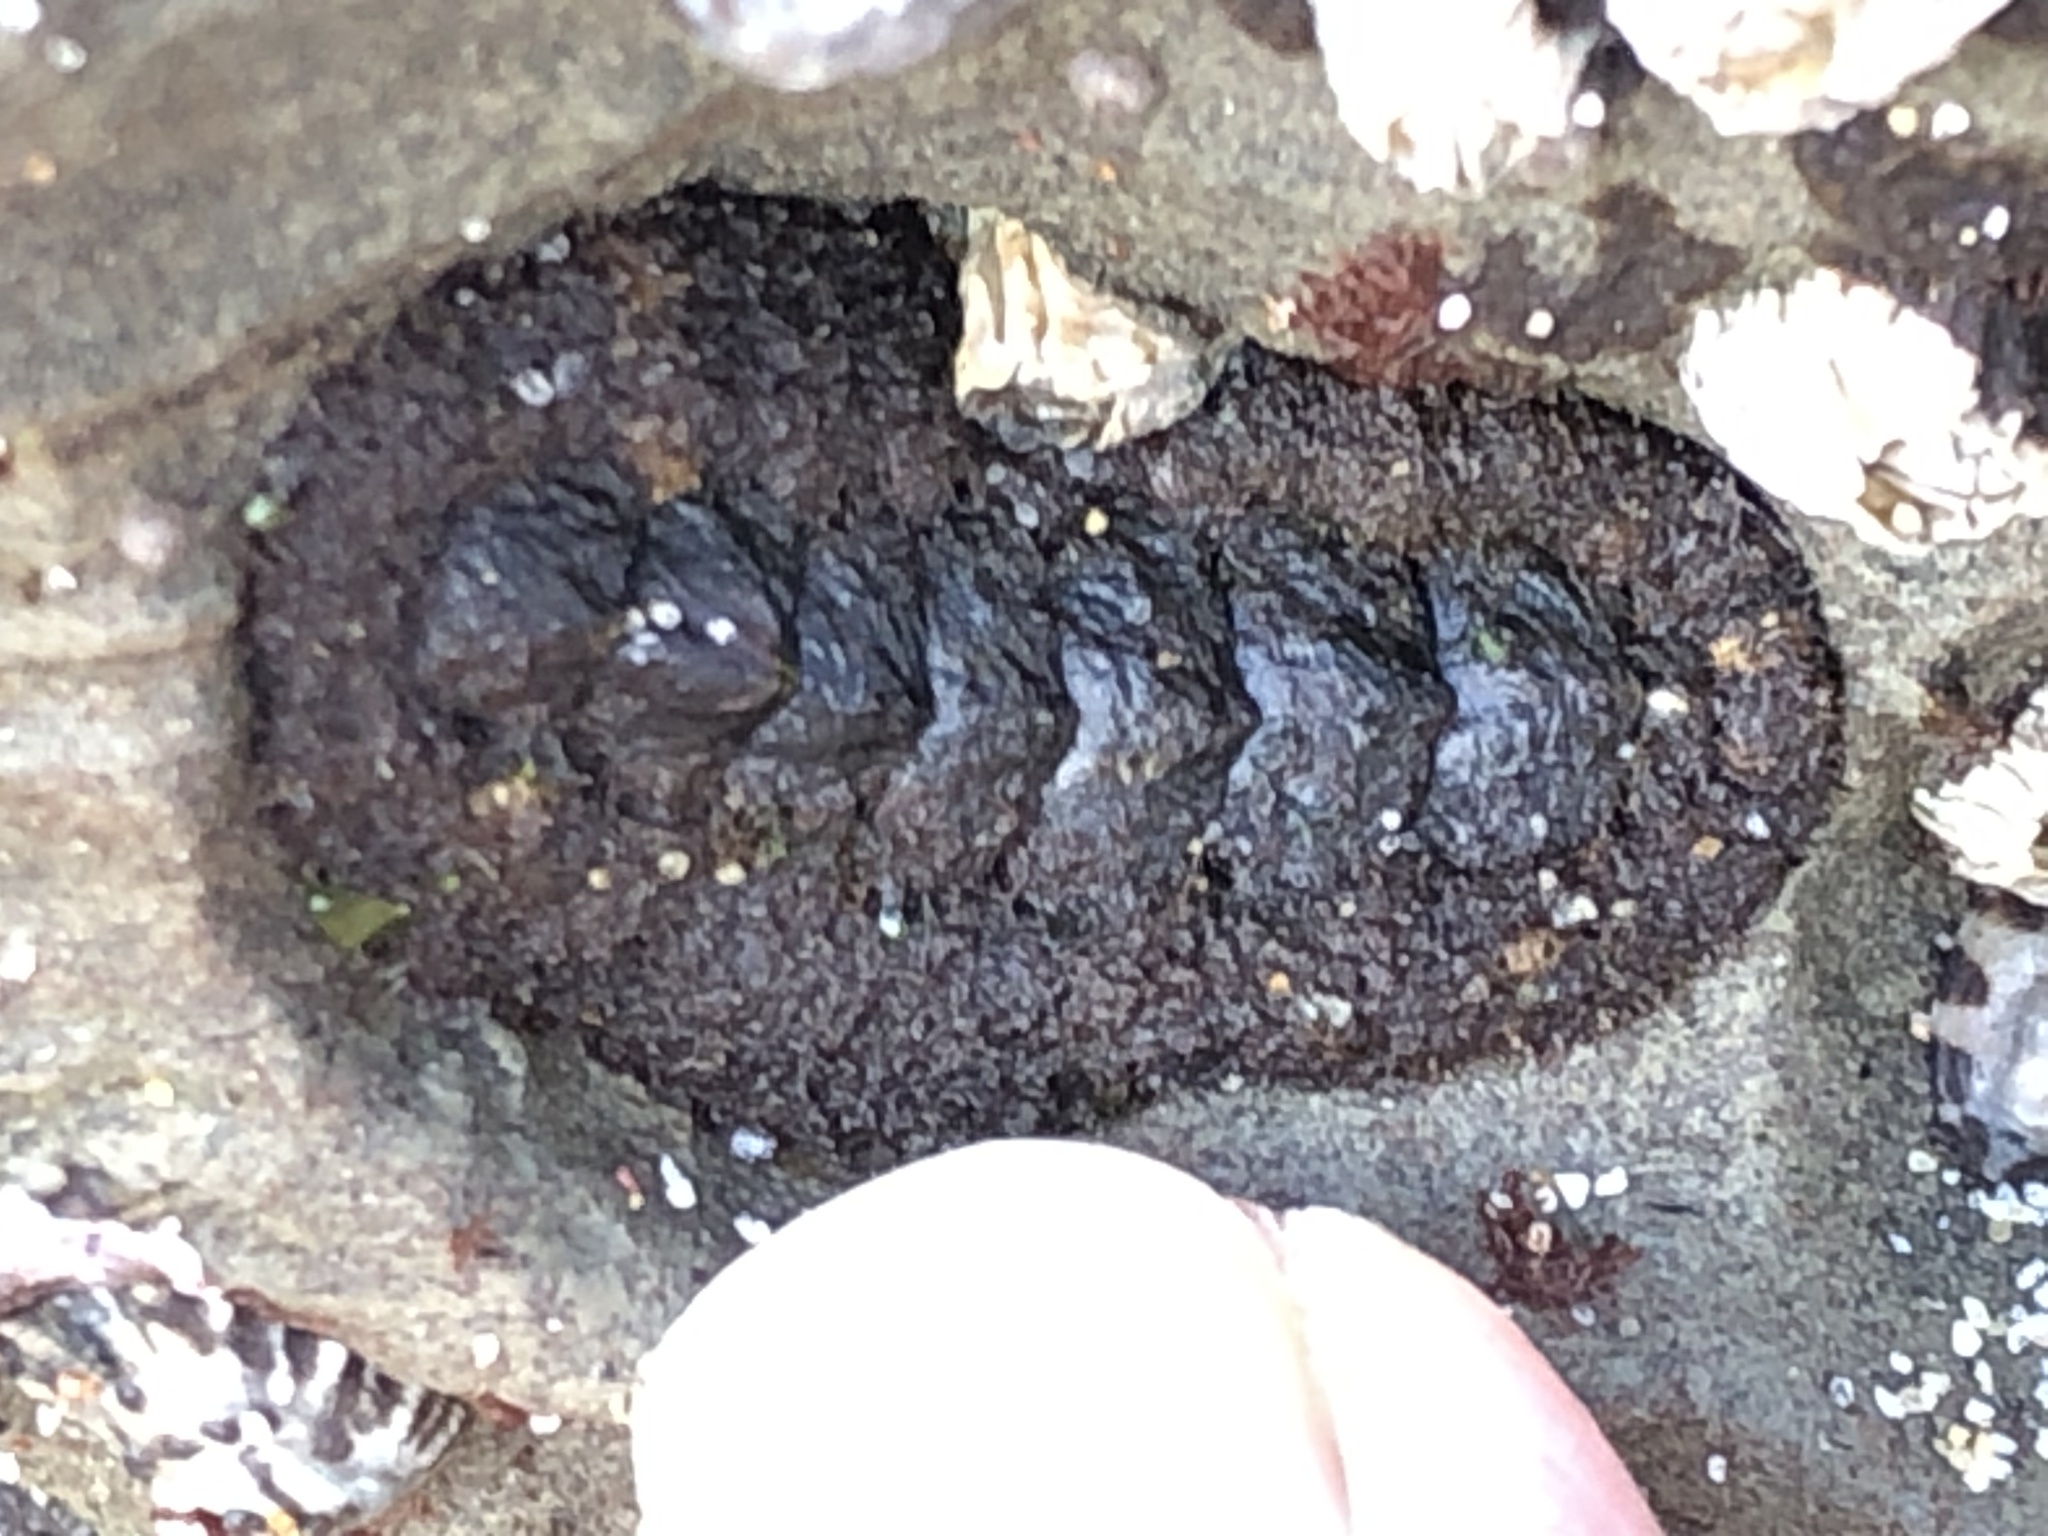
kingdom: Animalia
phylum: Mollusca
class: Polyplacophora
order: Chitonida
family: Tonicellidae
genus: Nuttallina
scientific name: Nuttallina californica
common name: California nuttall chiton
